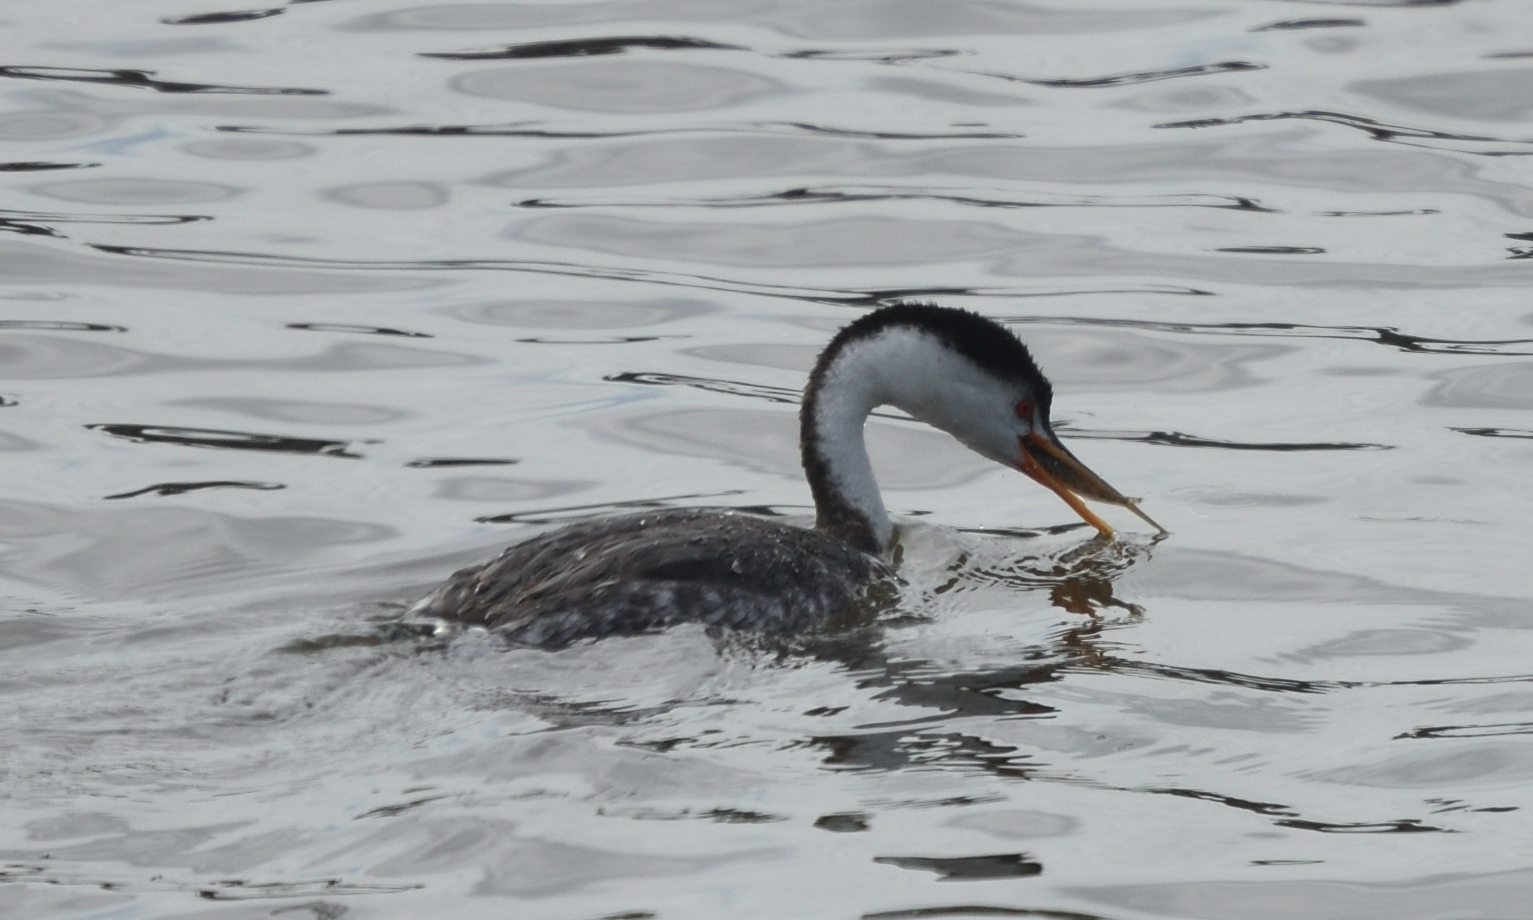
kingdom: Animalia
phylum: Chordata
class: Aves
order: Podicipediformes
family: Podicipedidae
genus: Aechmophorus
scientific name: Aechmophorus clarkii
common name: Clark's grebe
